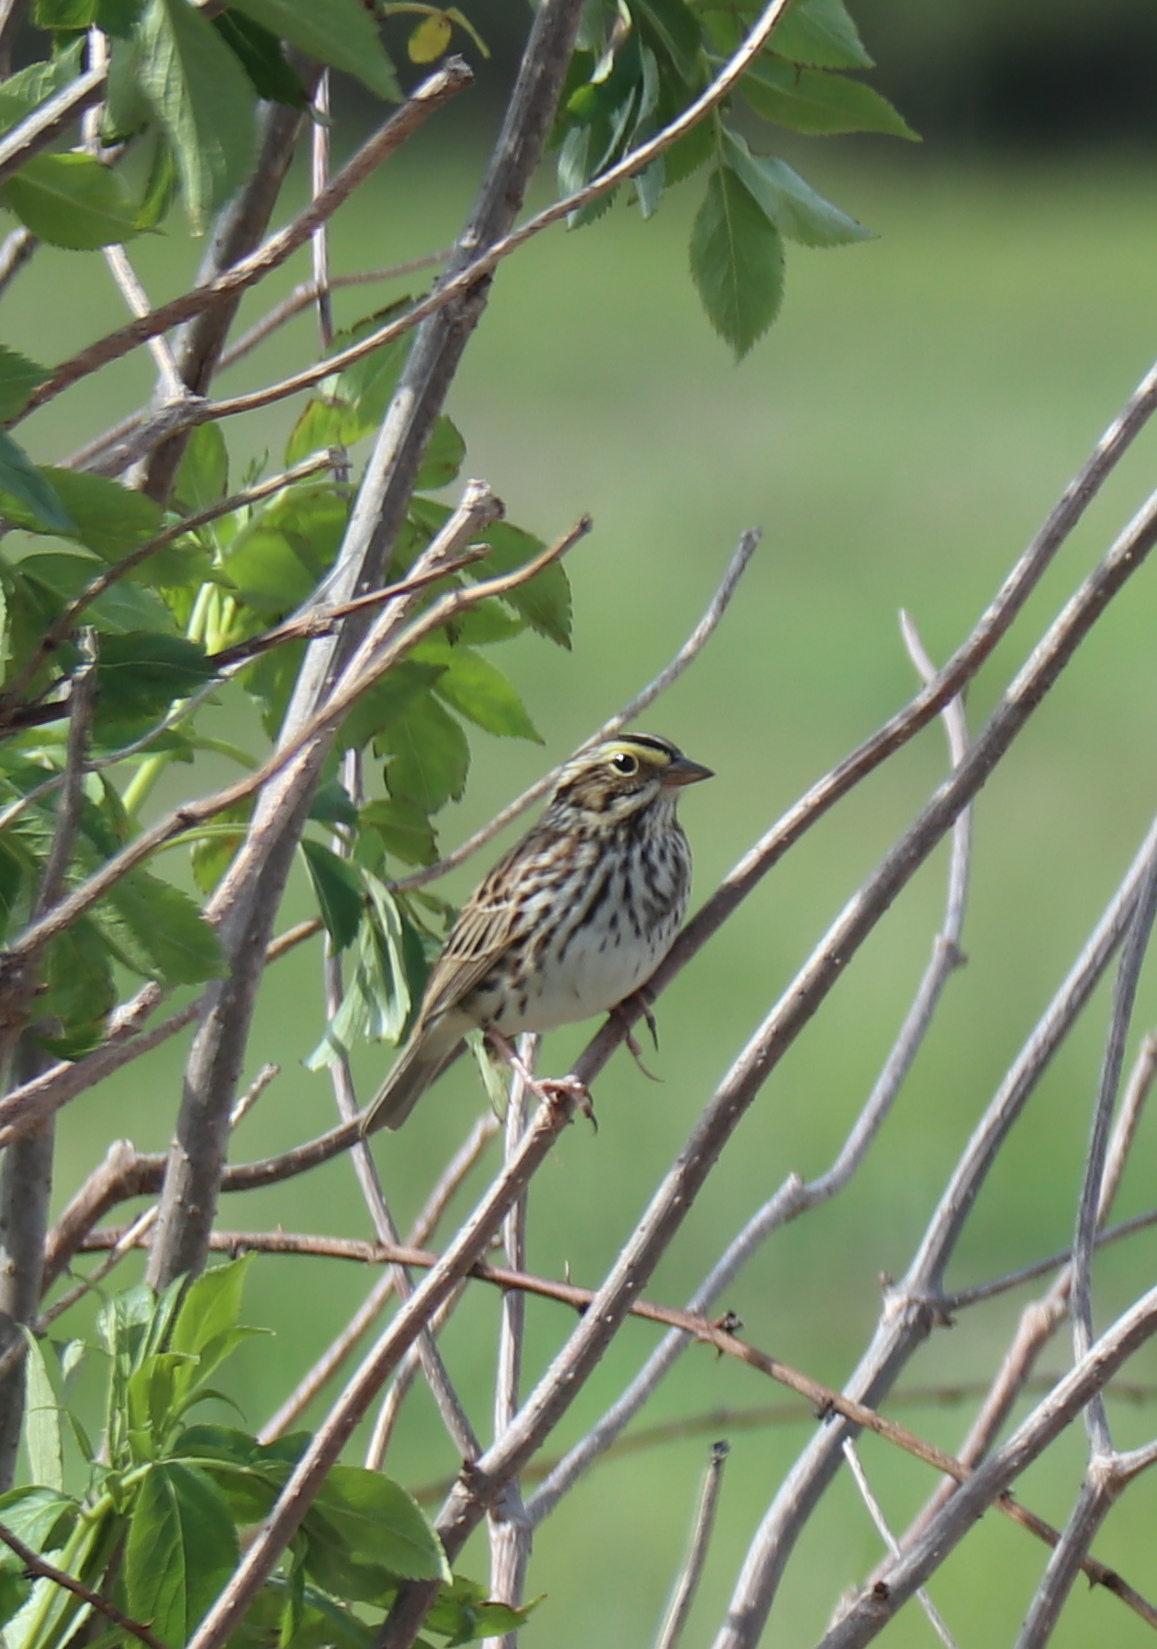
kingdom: Animalia
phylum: Chordata
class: Aves
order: Passeriformes
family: Passerellidae
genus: Passerculus
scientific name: Passerculus sandwichensis
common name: Savannah sparrow
